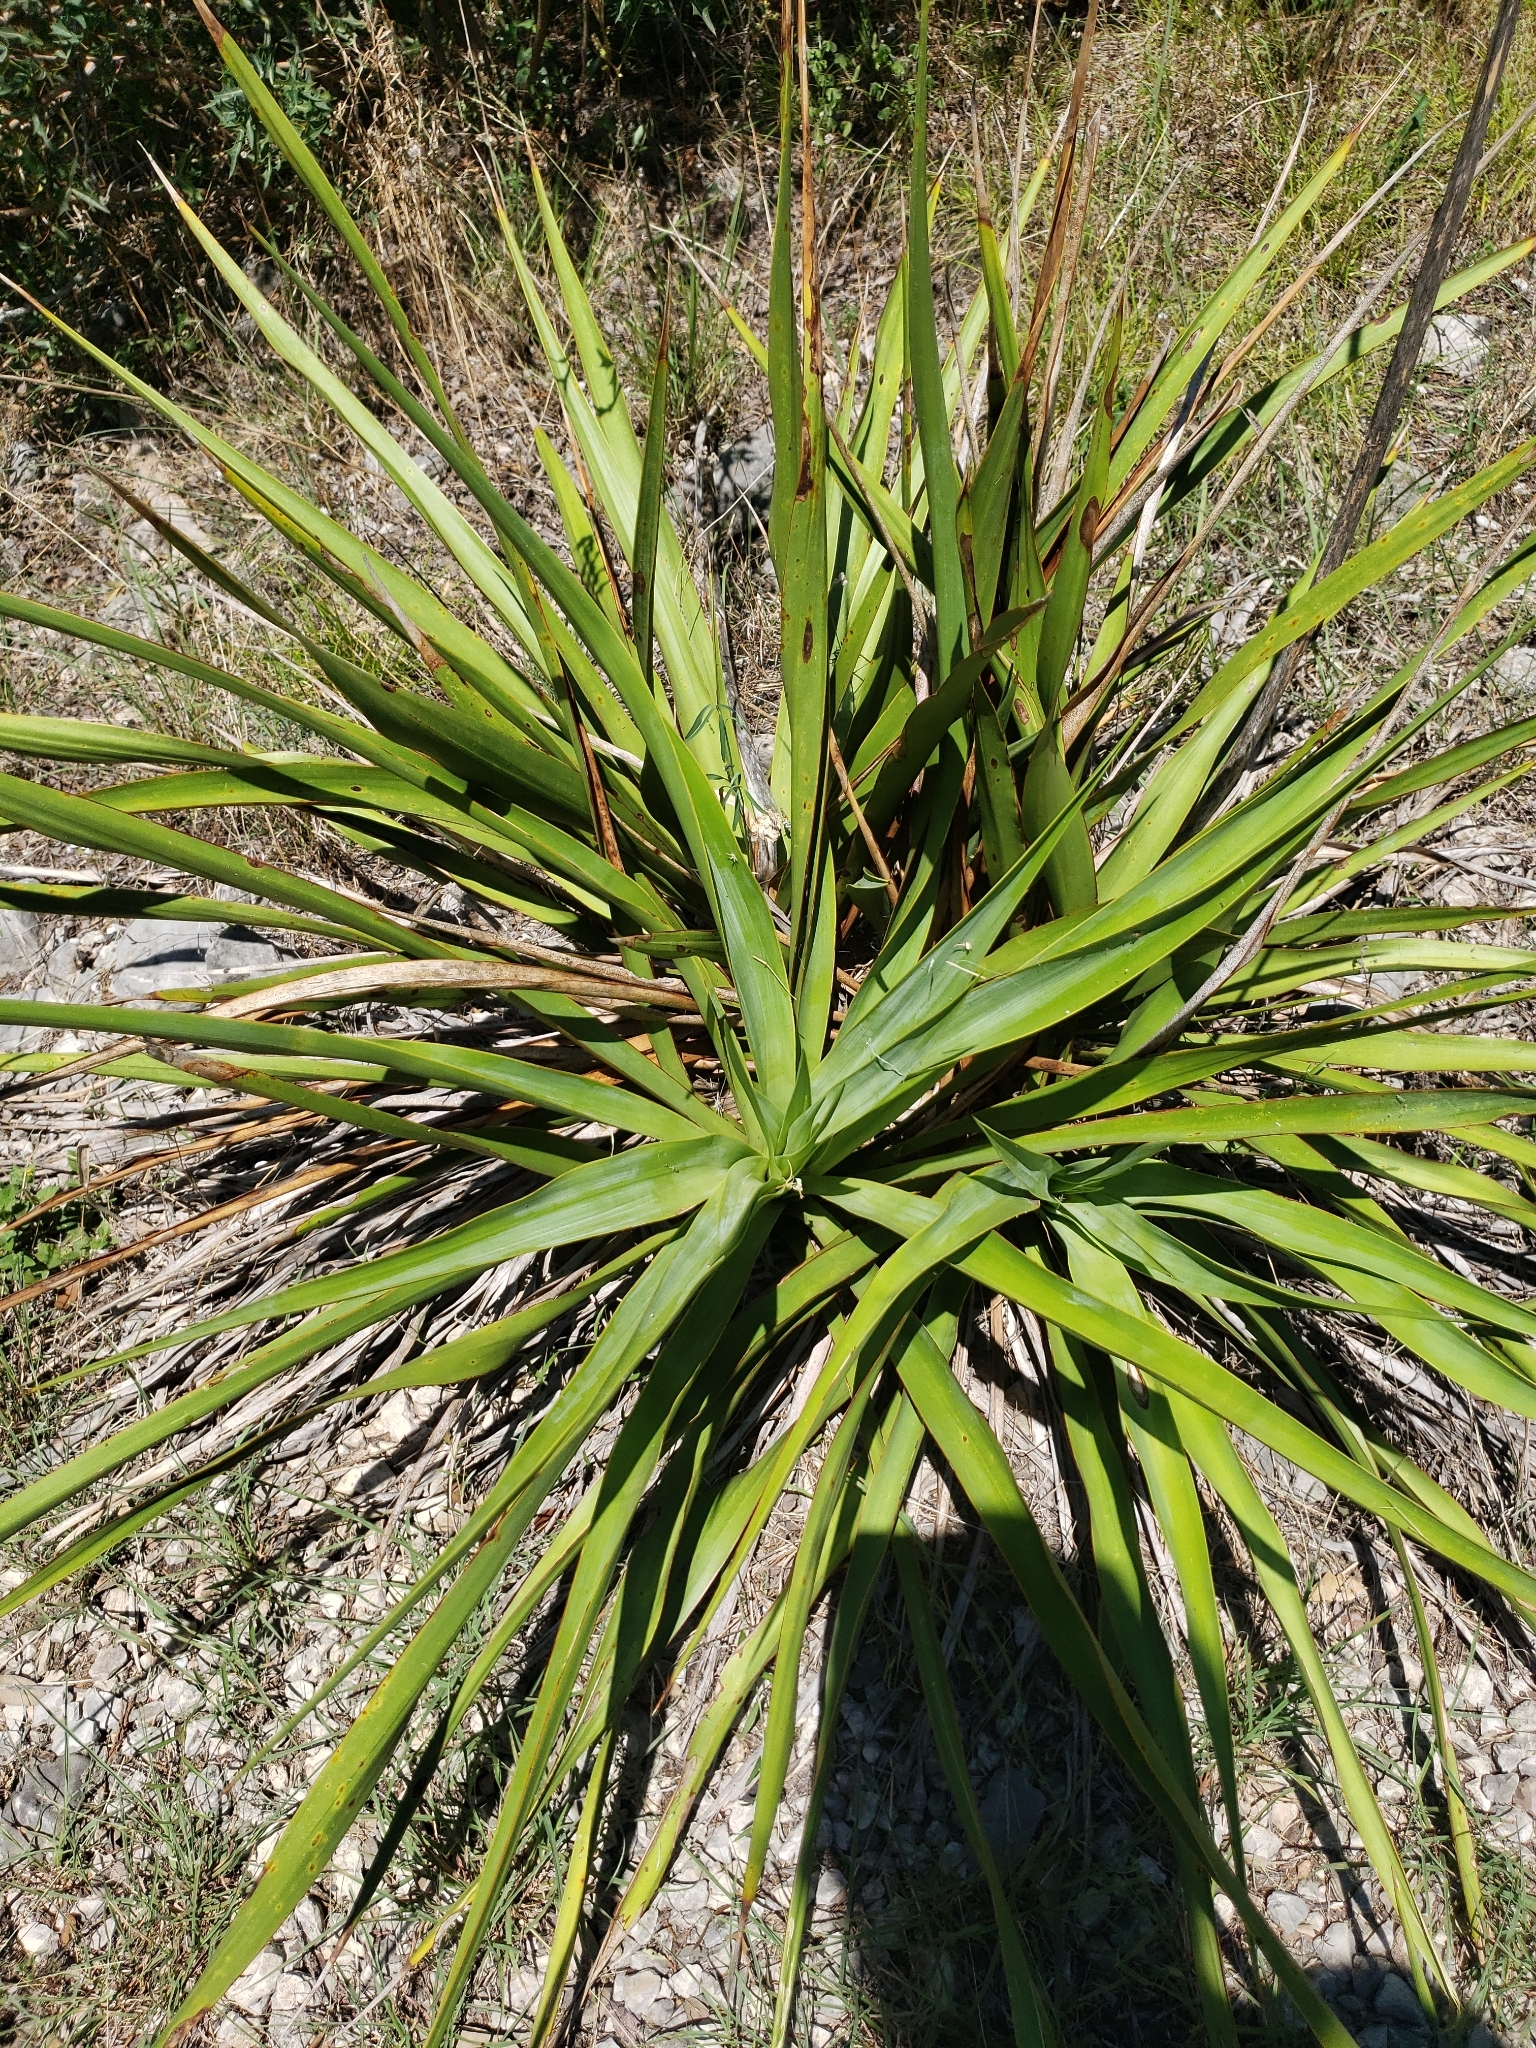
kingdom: Plantae
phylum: Tracheophyta
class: Liliopsida
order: Asparagales
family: Asparagaceae
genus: Yucca
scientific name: Yucca rupicola
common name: Twisted-leaf spanish-dagger
